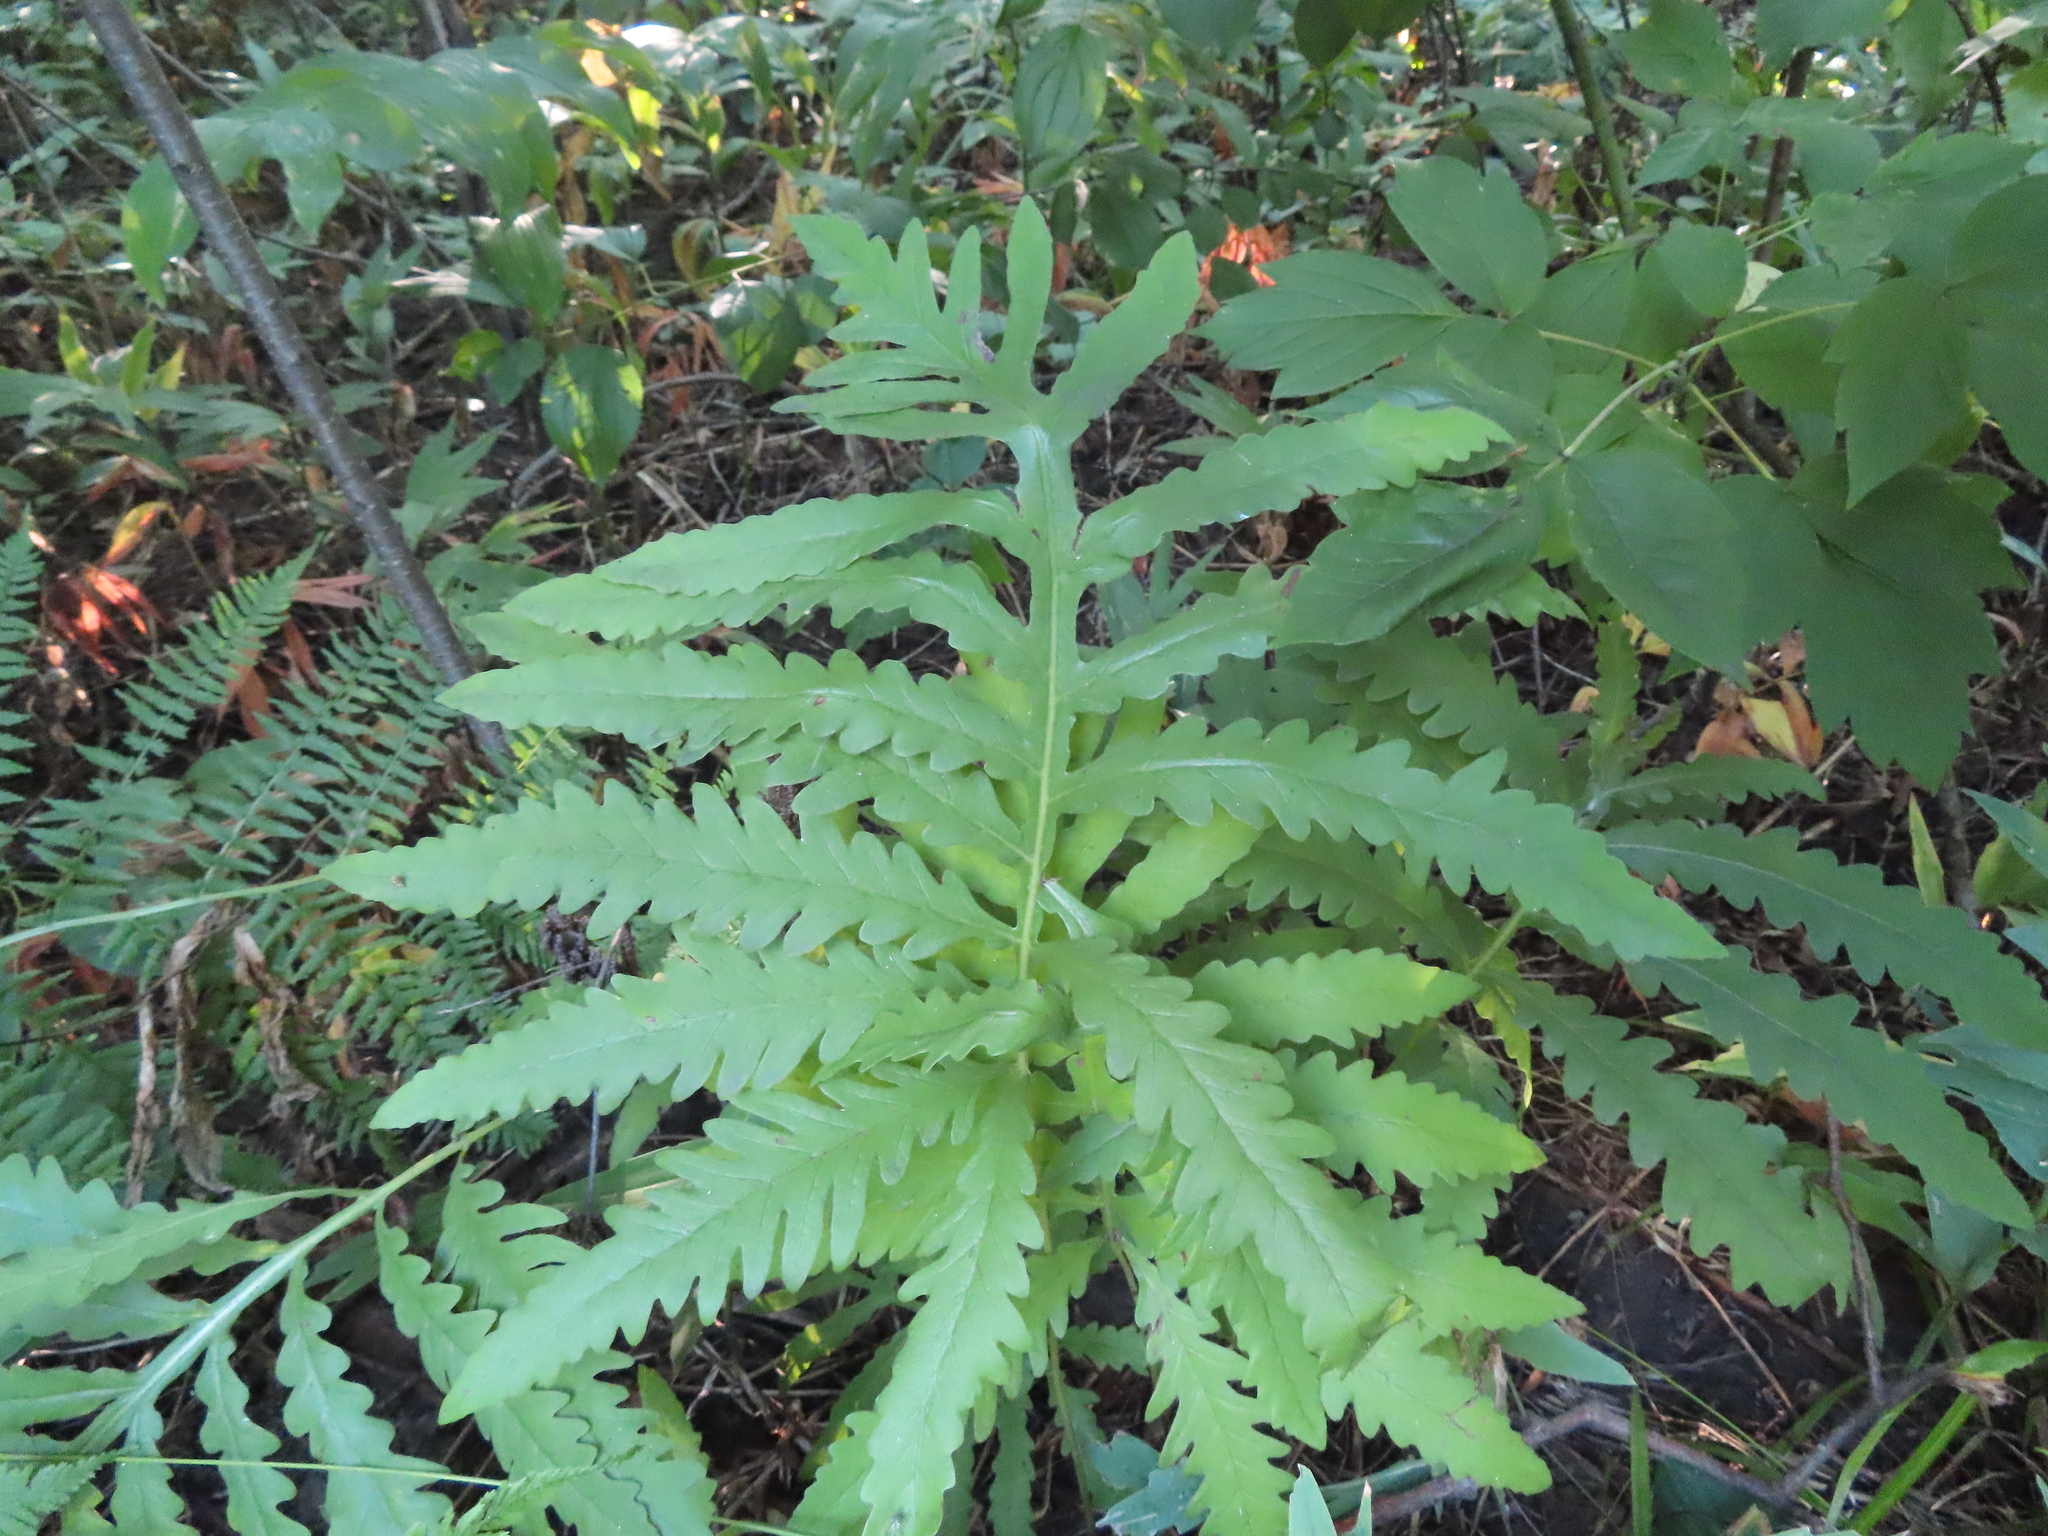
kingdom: Plantae
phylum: Tracheophyta
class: Polypodiopsida
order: Polypodiales
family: Onocleaceae
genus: Onoclea
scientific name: Onoclea sensibilis
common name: Sensitive fern
